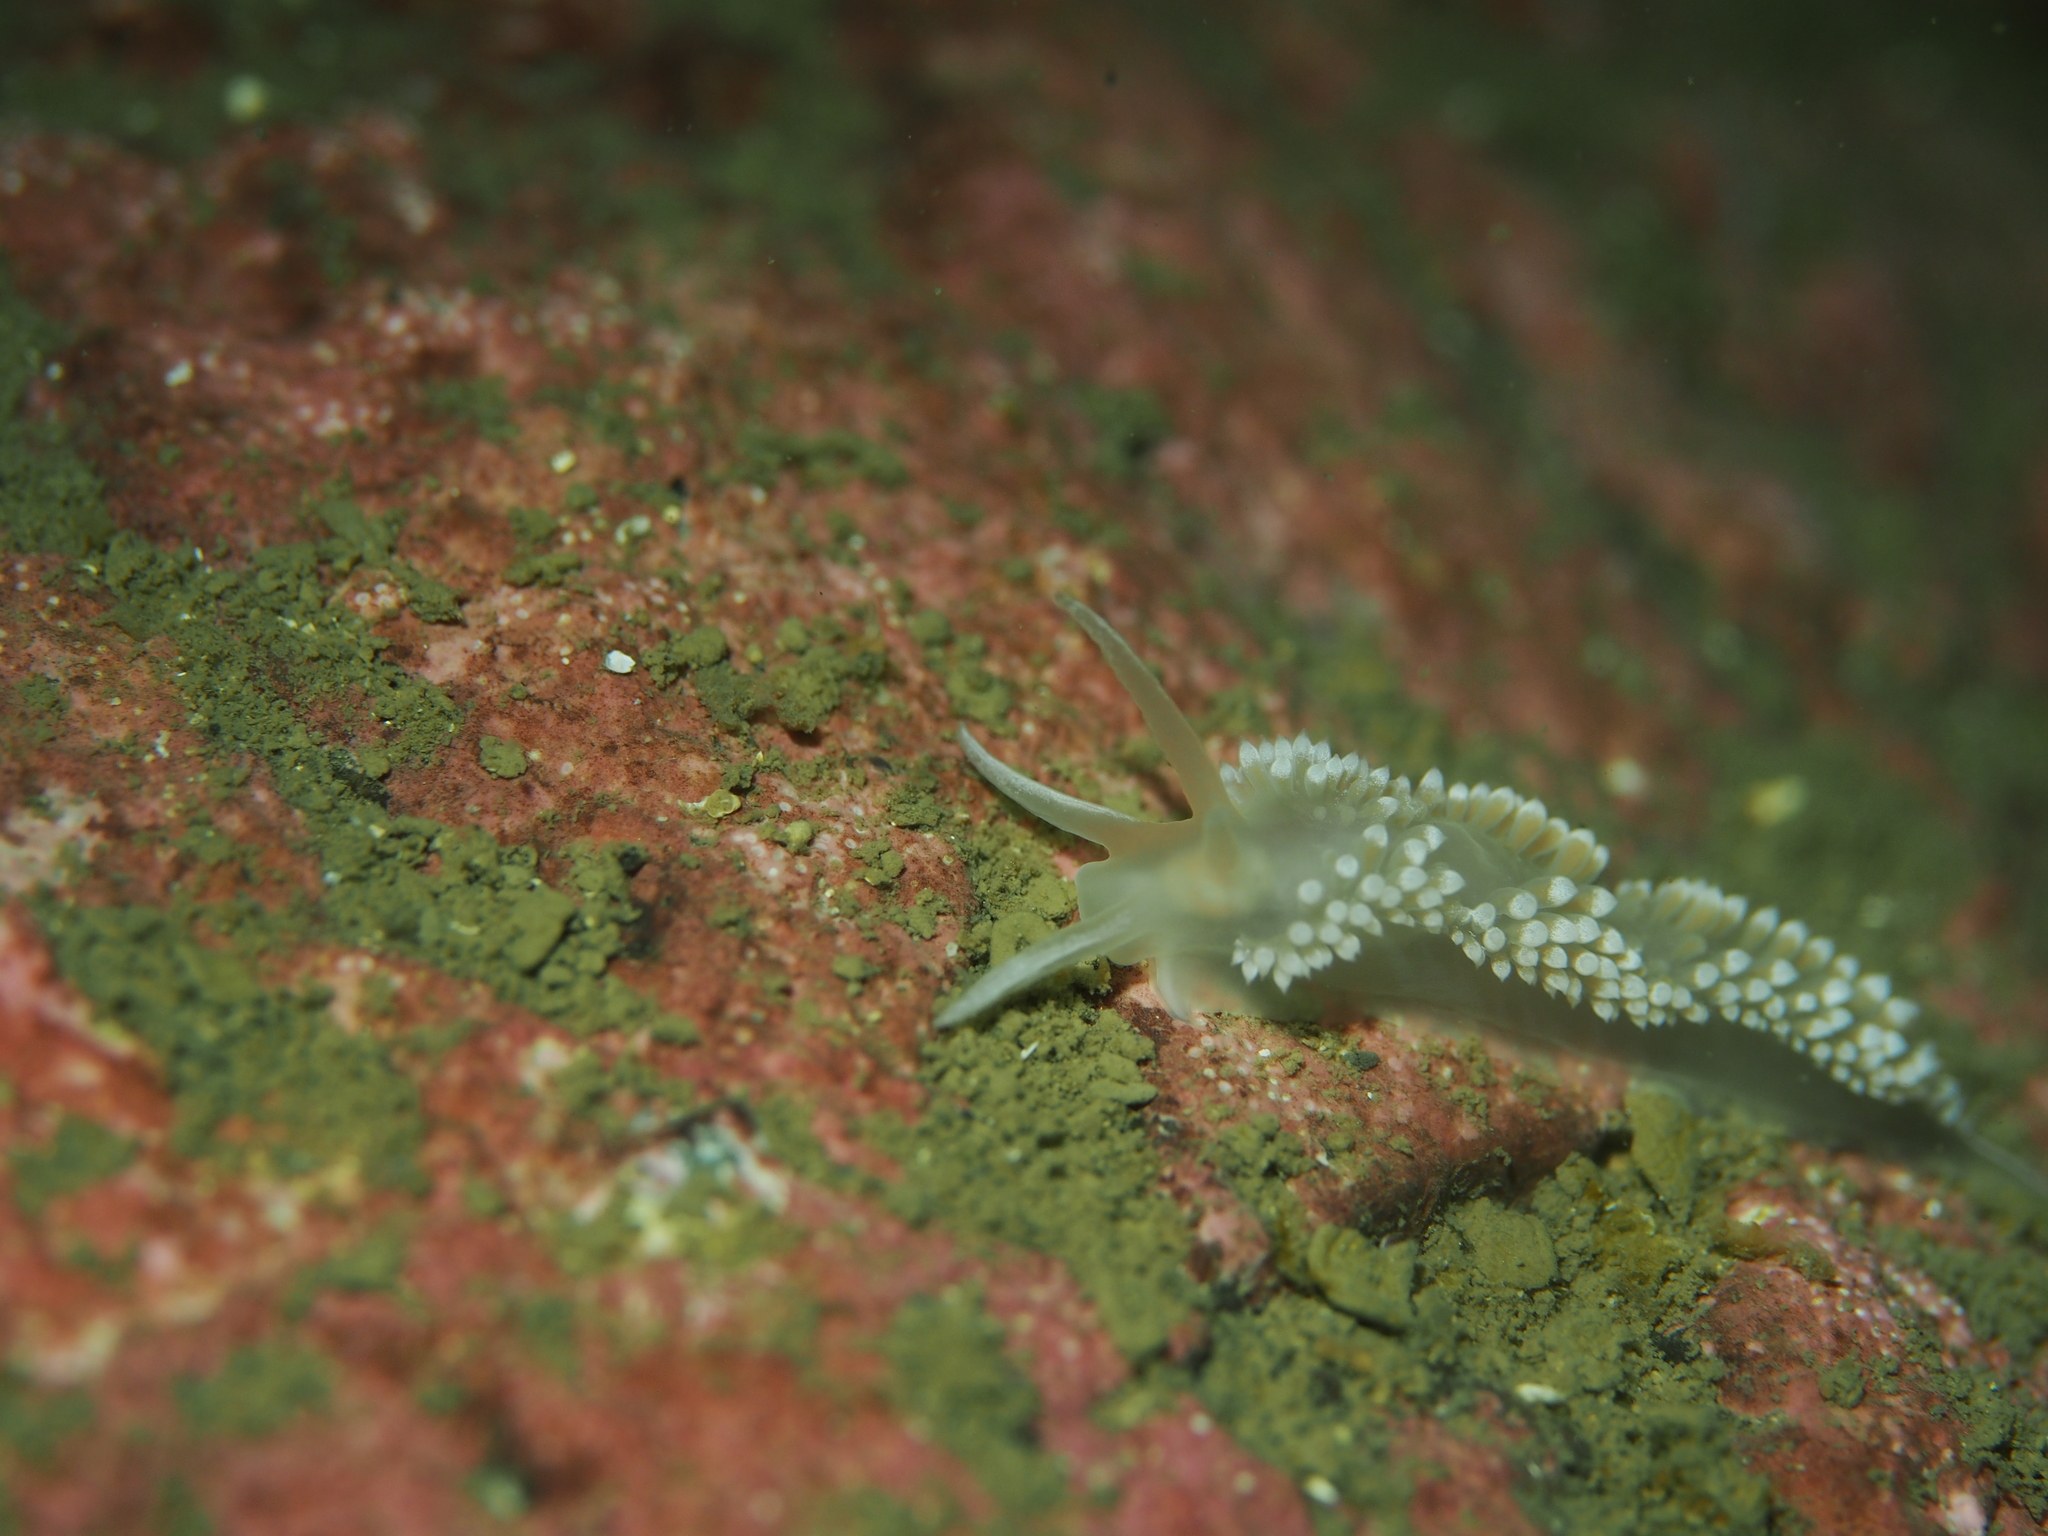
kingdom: Animalia
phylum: Mollusca
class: Gastropoda
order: Nudibranchia
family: Coryphellidae
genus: Coryphella
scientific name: Coryphella verrucosa
